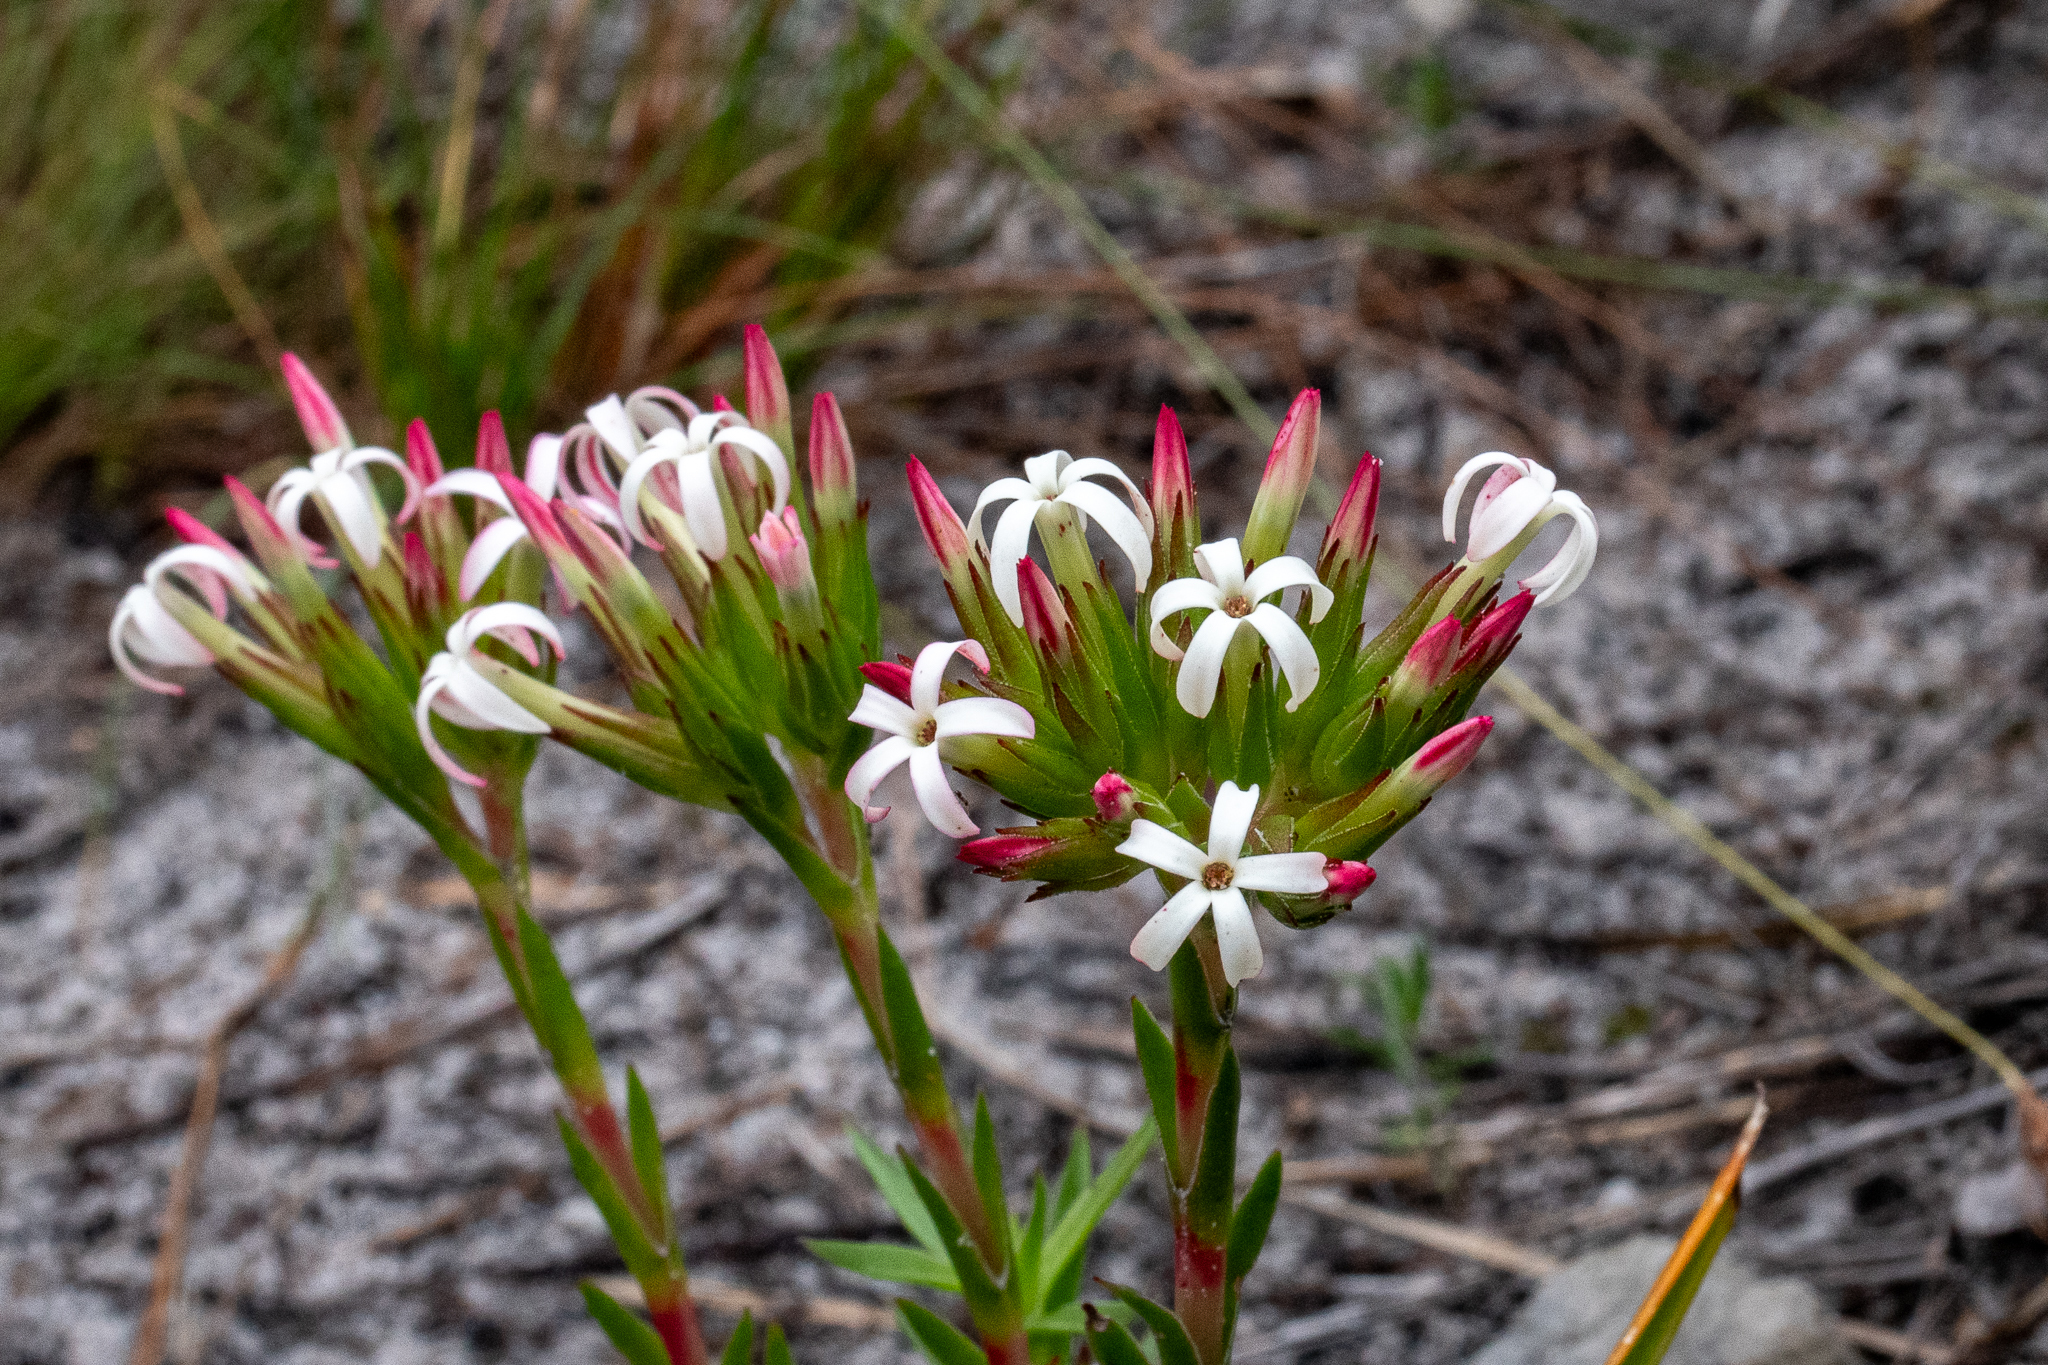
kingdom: Plantae
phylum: Tracheophyta
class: Magnoliopsida
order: Saxifragales
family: Crassulaceae
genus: Crassula
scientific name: Crassula fascicularis
